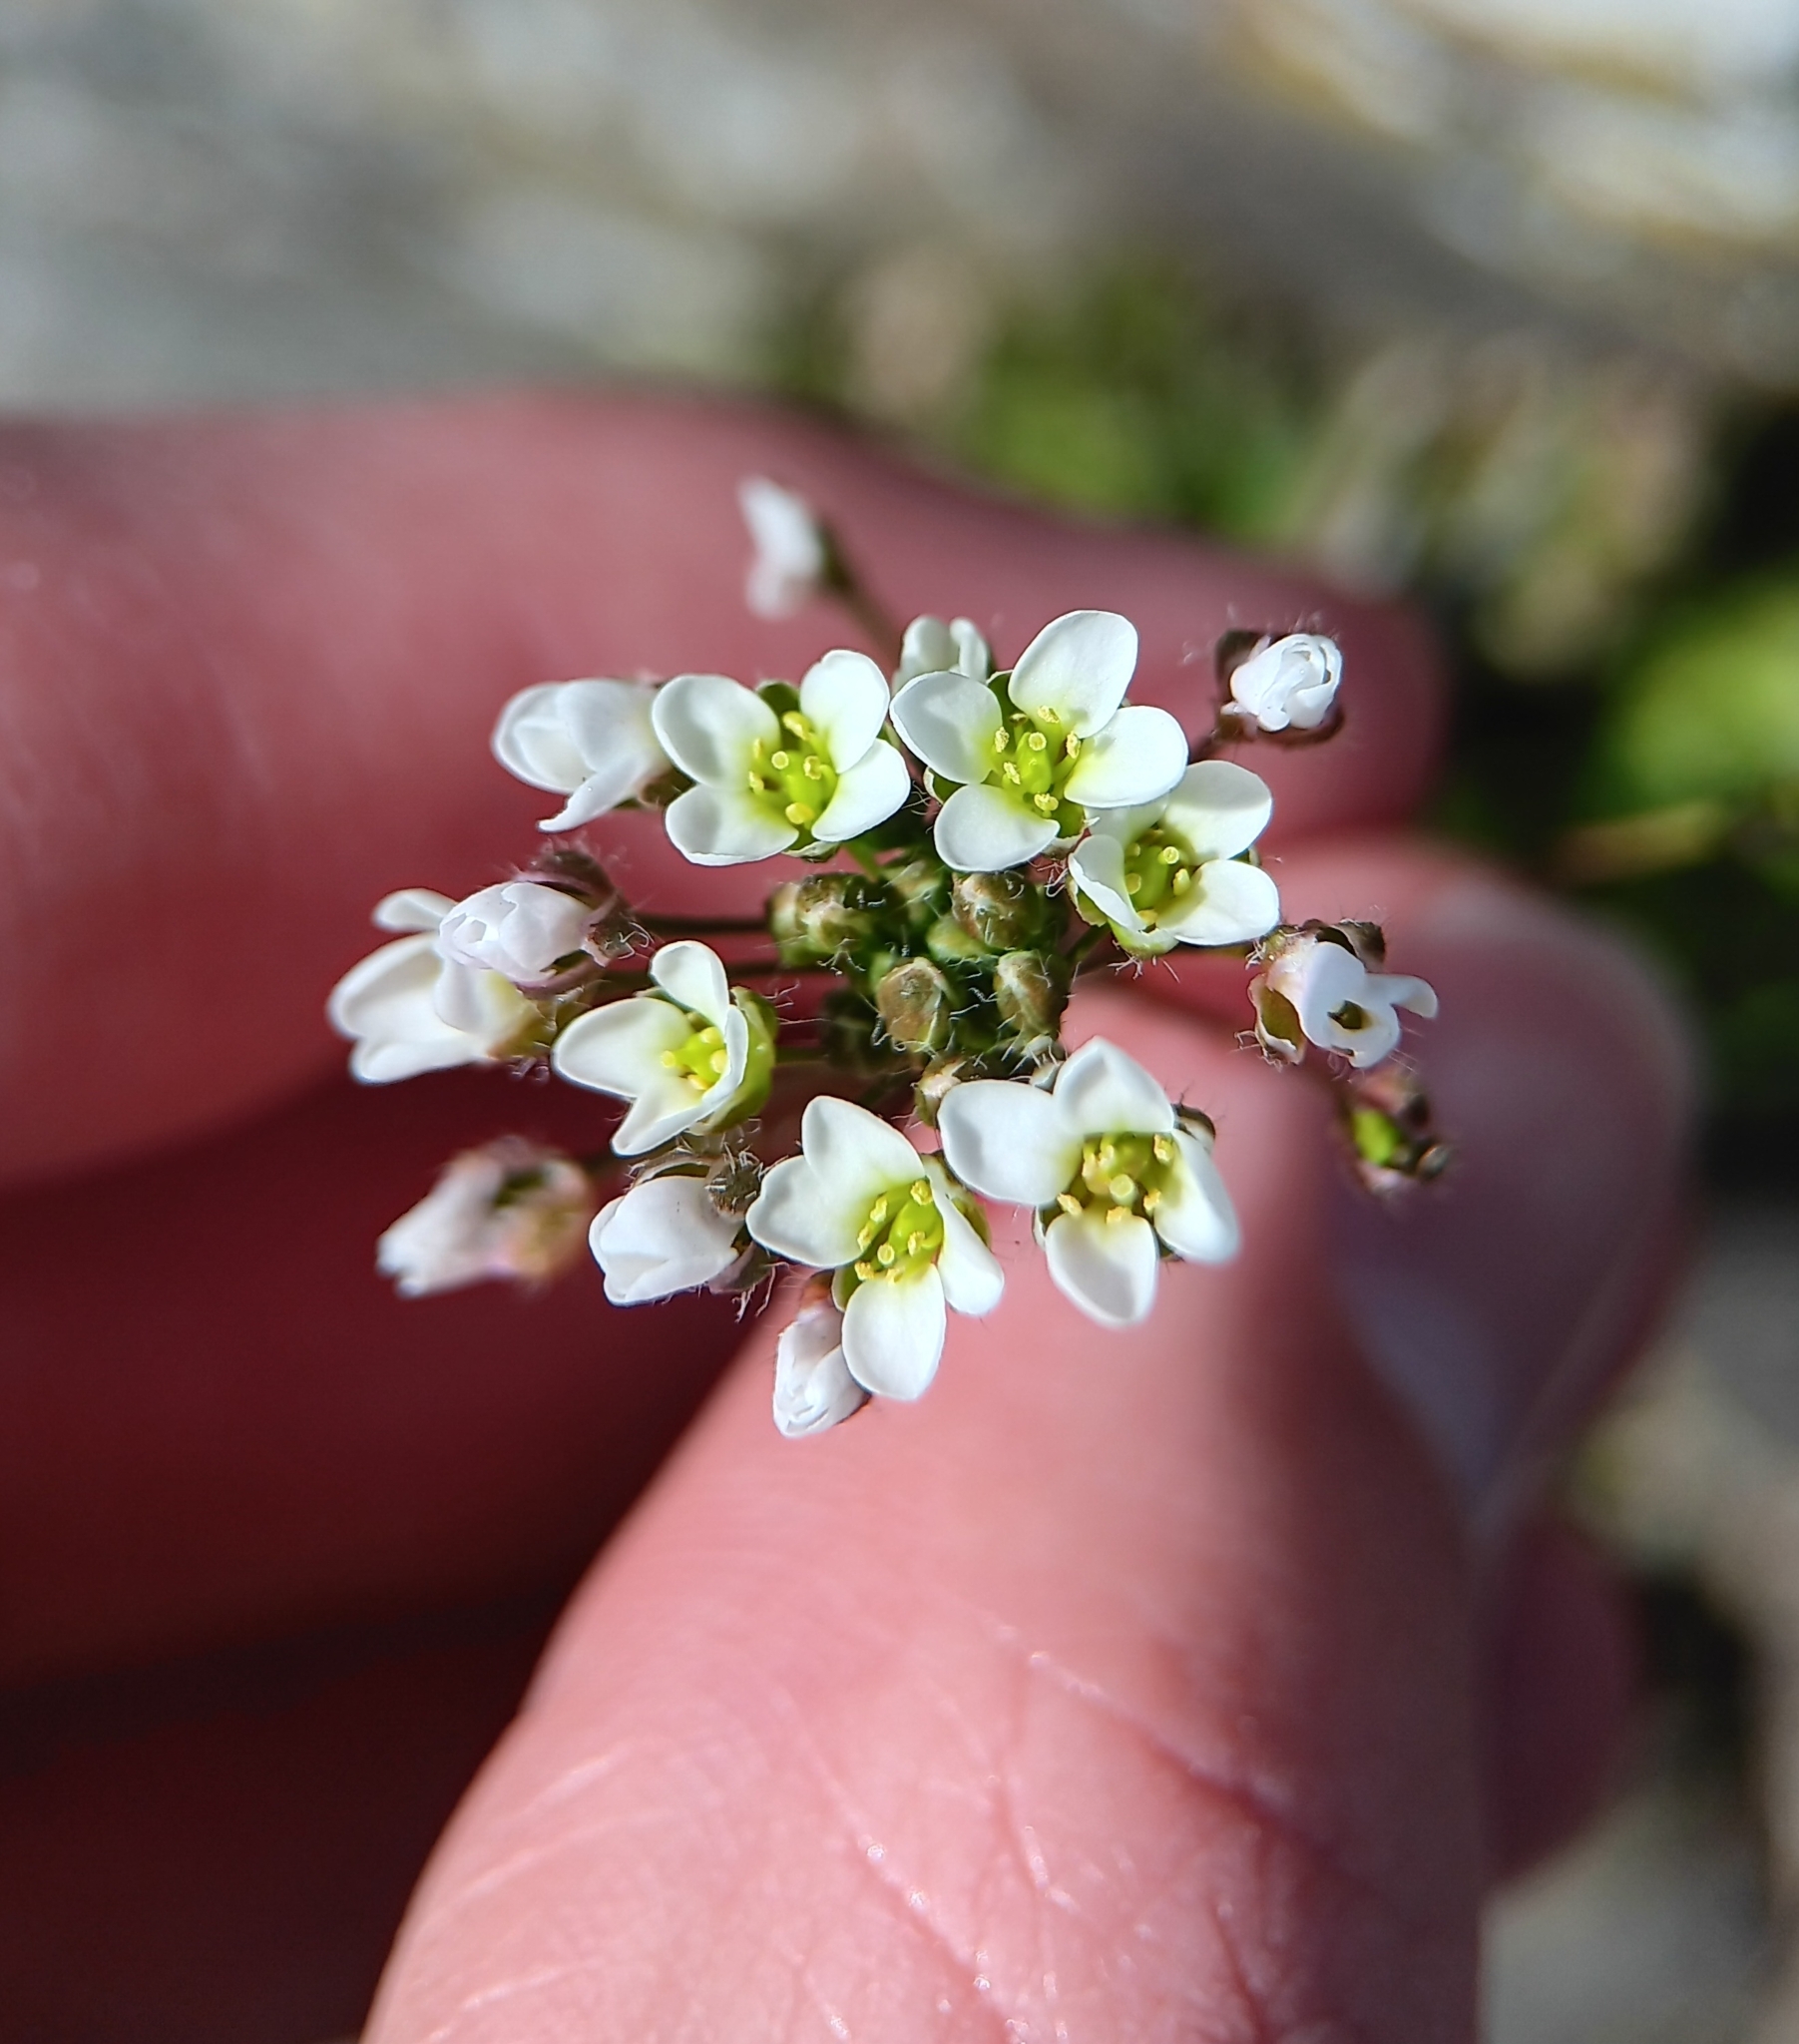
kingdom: Plantae
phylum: Tracheophyta
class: Magnoliopsida
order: Brassicales
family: Brassicaceae
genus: Capsella
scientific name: Capsella bursa-pastoris
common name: Shepherd's purse
